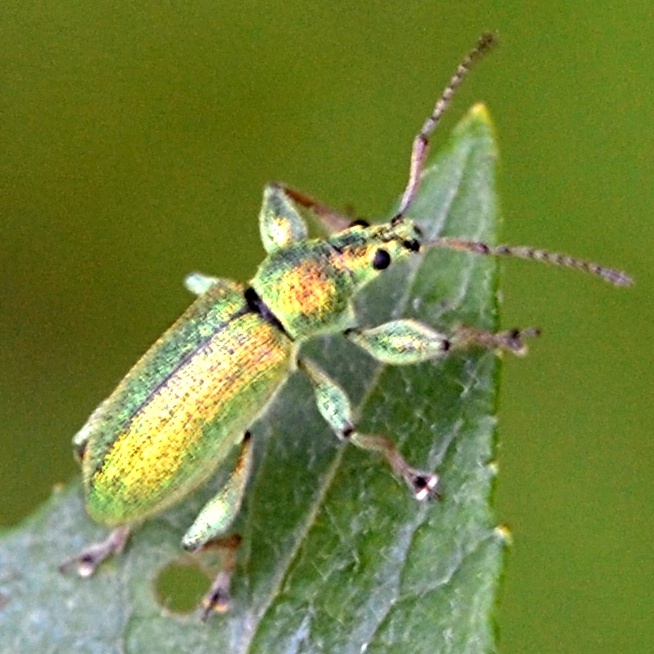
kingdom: Animalia
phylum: Arthropoda
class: Insecta
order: Coleoptera
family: Curculionidae
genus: Phyllobius
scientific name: Phyllobius arborator
